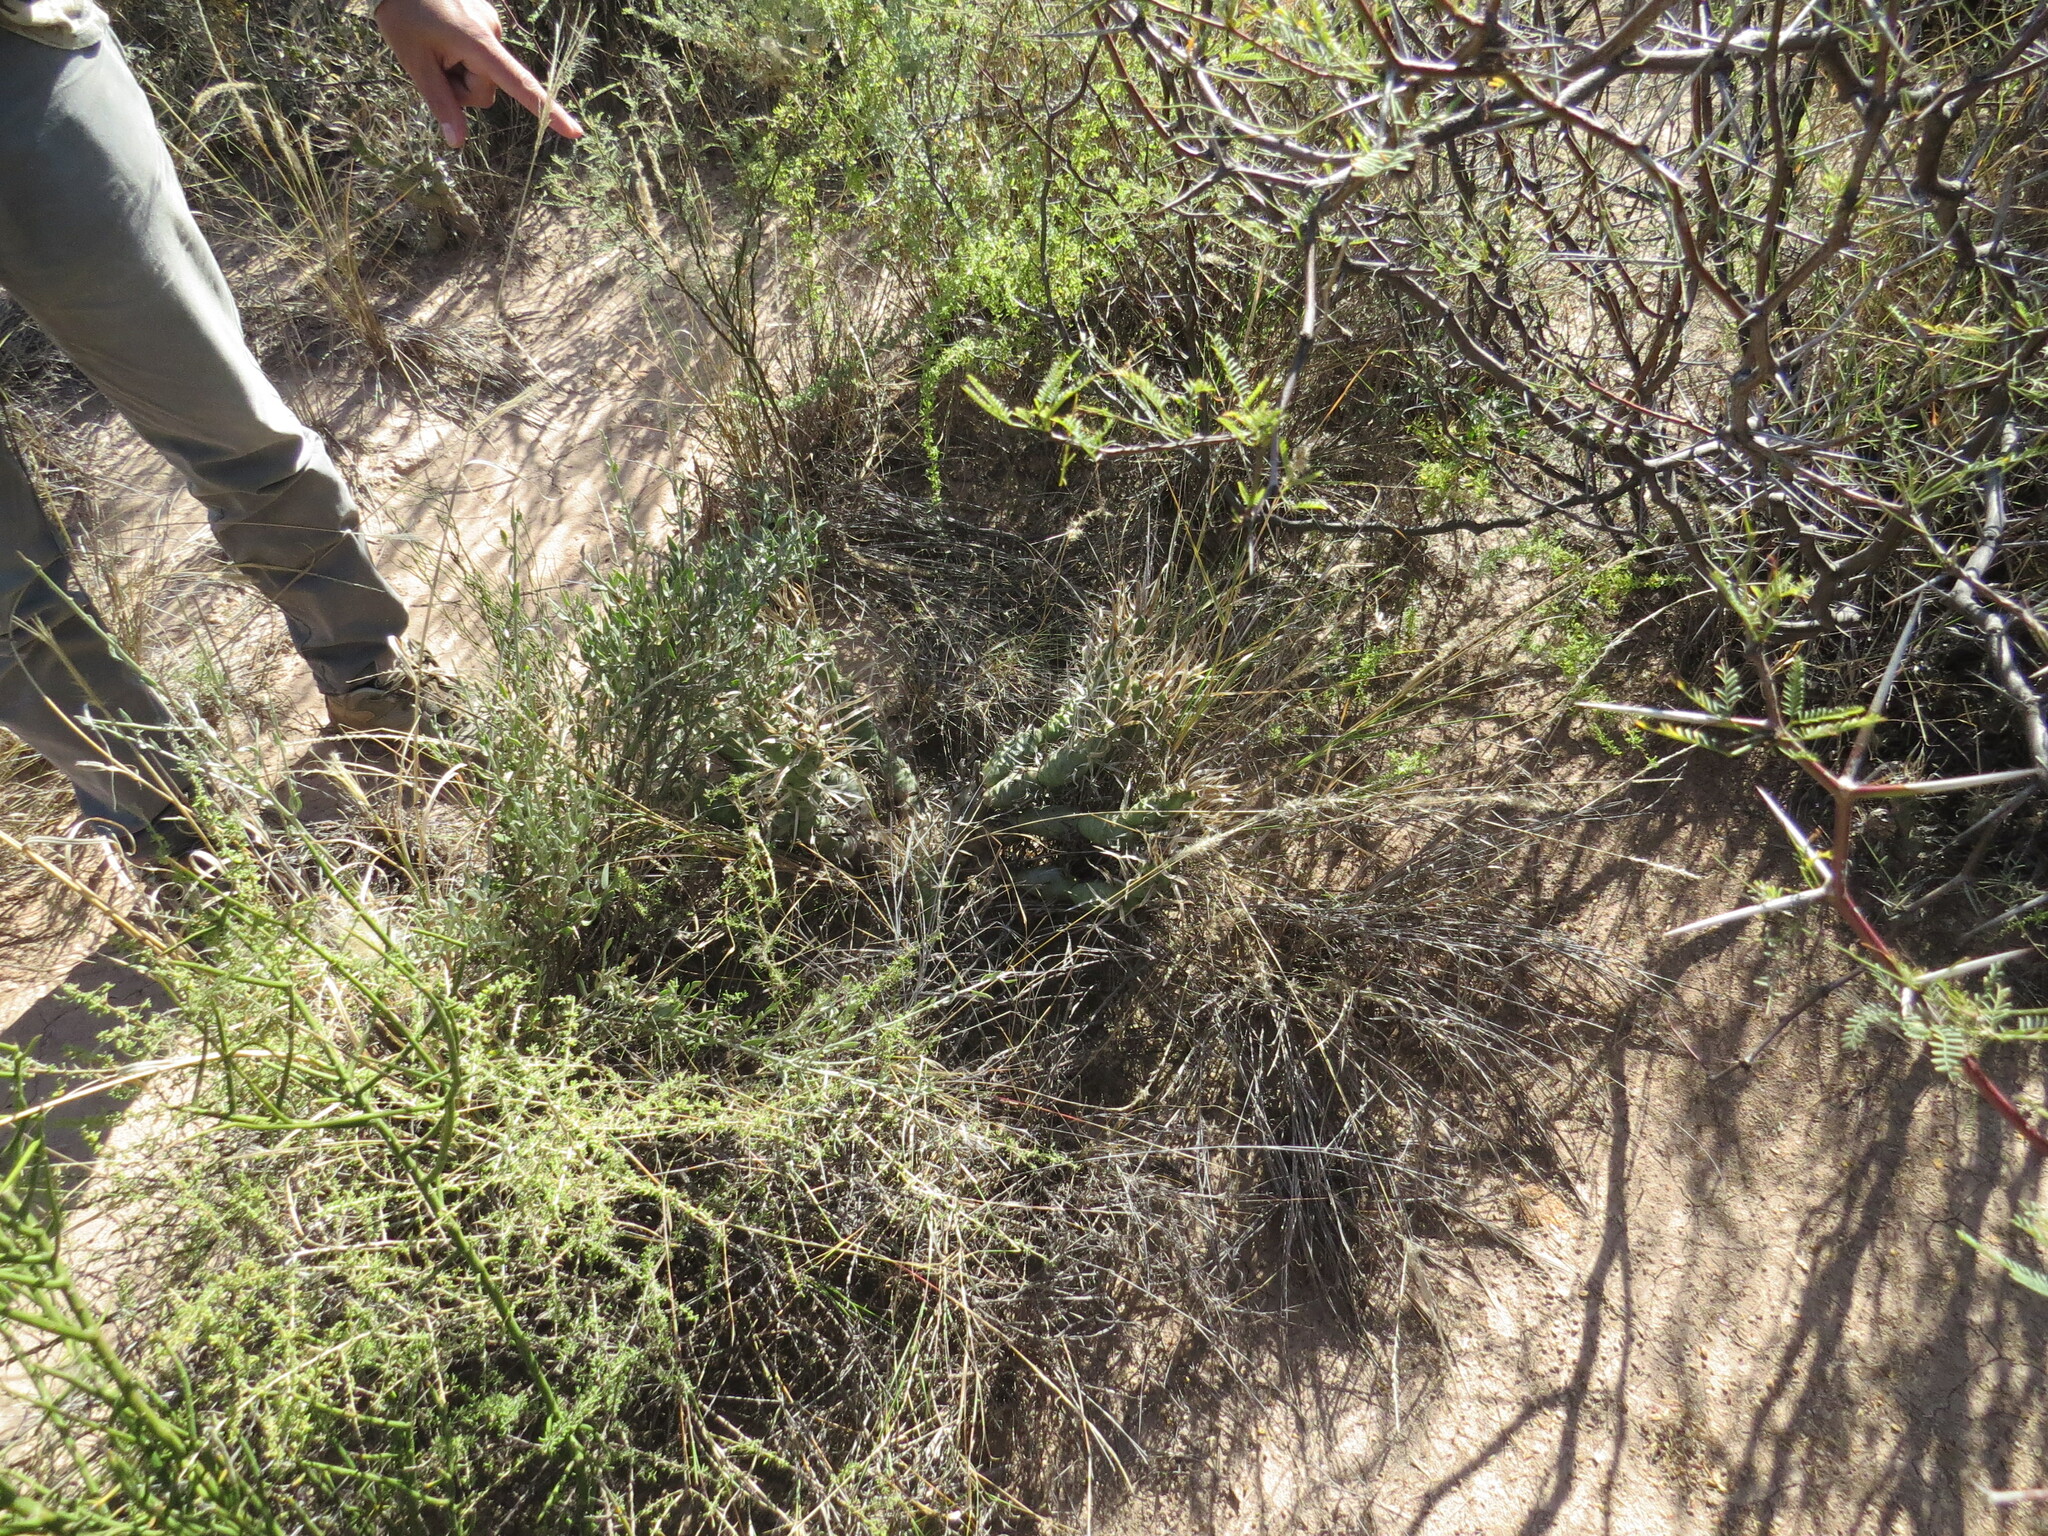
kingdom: Plantae
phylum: Tracheophyta
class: Magnoliopsida
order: Caryophyllales
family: Cactaceae
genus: Tephrocactus
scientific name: Tephrocactus articulatus
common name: Paper cactus
